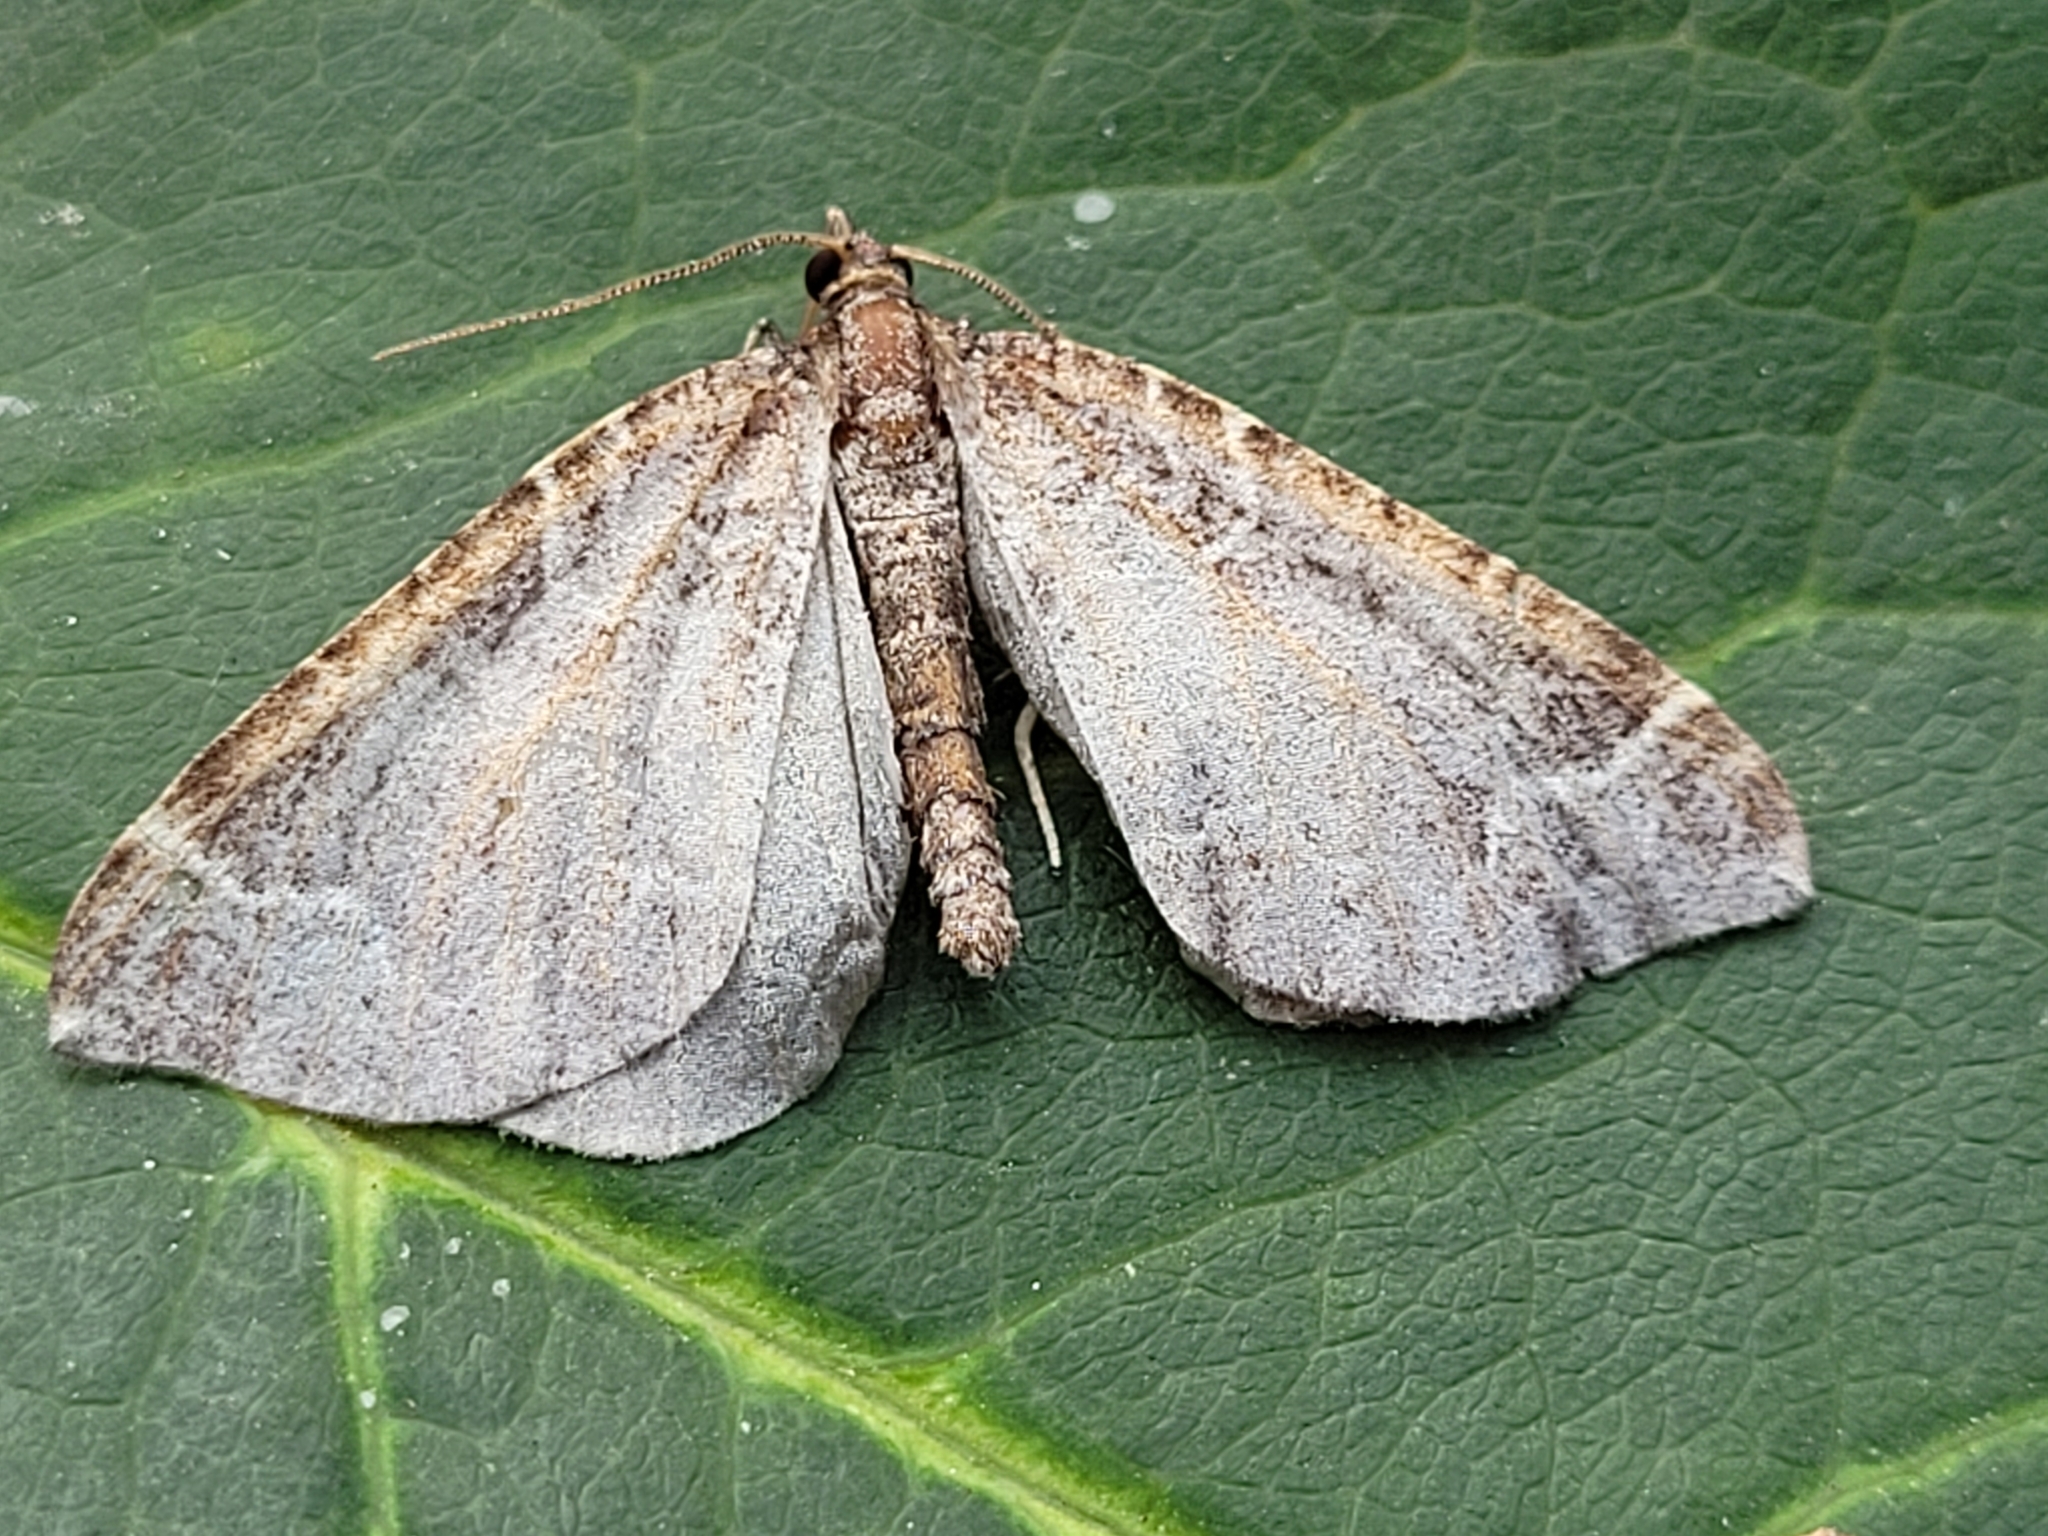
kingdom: Animalia
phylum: Arthropoda
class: Insecta
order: Lepidoptera
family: Geometridae
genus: Eulithis
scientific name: Eulithis flavibrunneata
